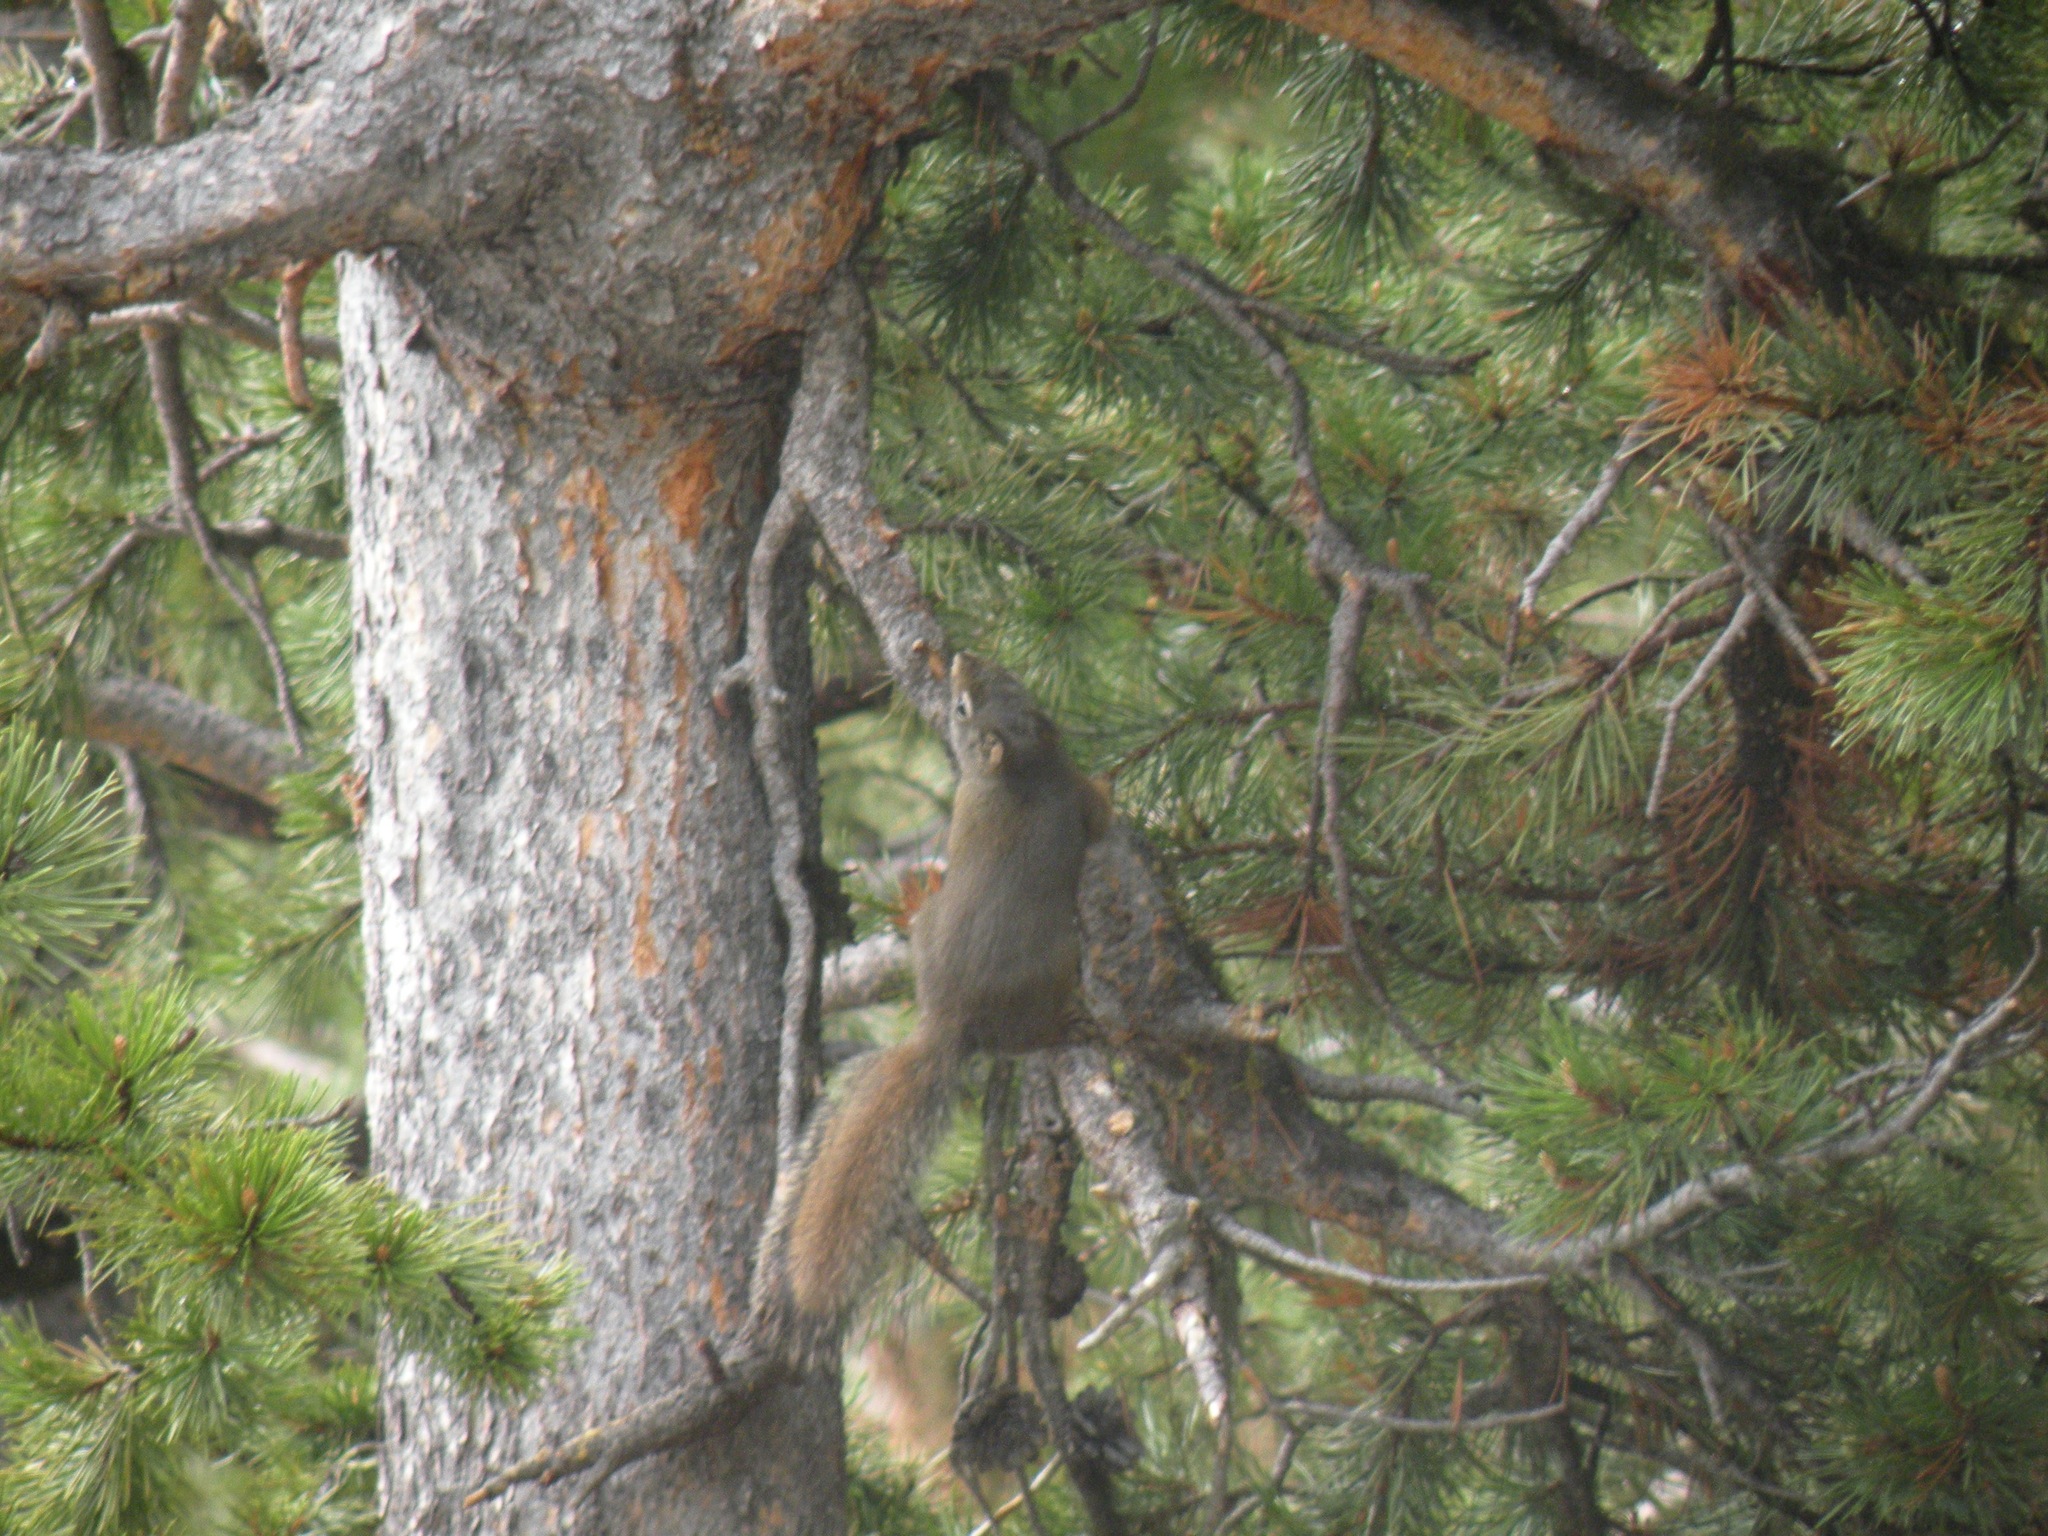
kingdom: Animalia
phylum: Chordata
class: Mammalia
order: Rodentia
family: Sciuridae
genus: Tamiasciurus
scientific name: Tamiasciurus hudsonicus
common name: Red squirrel
